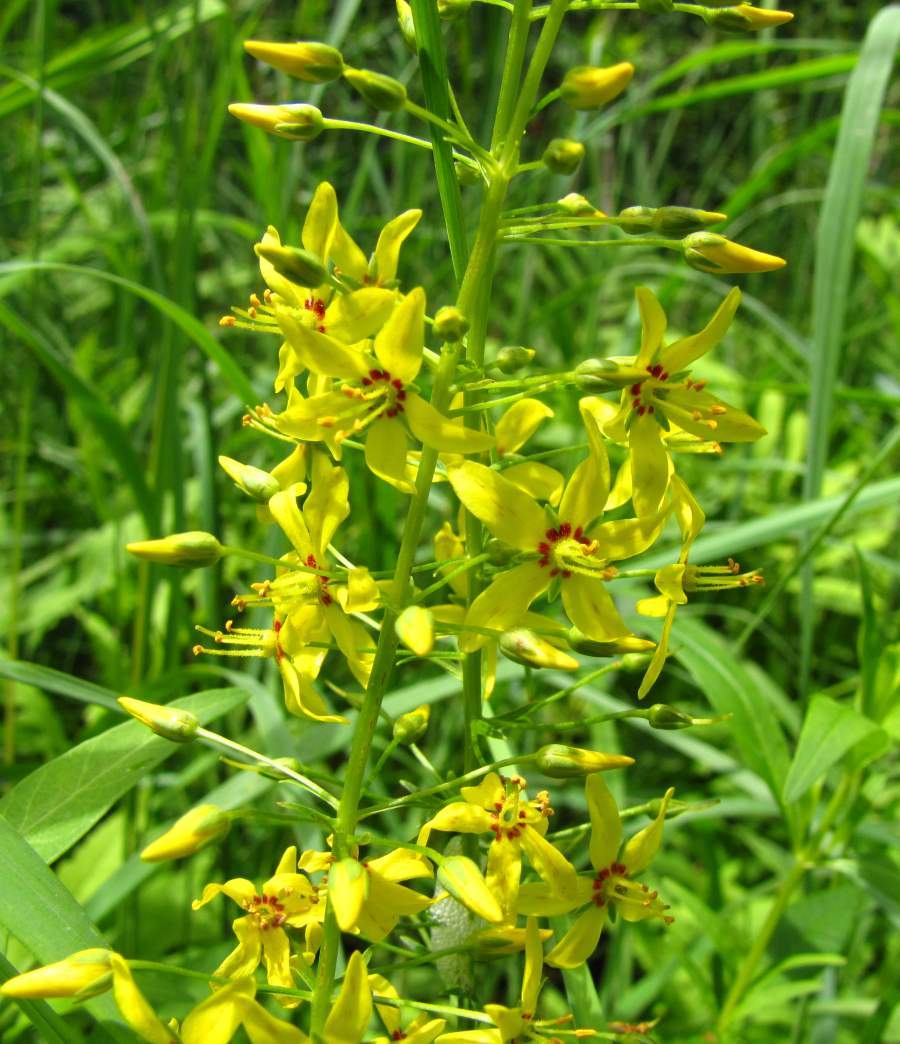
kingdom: Plantae
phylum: Tracheophyta
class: Magnoliopsida
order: Ericales
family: Primulaceae
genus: Lysimachia
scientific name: Lysimachia terrestris
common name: Lake loosestrife
